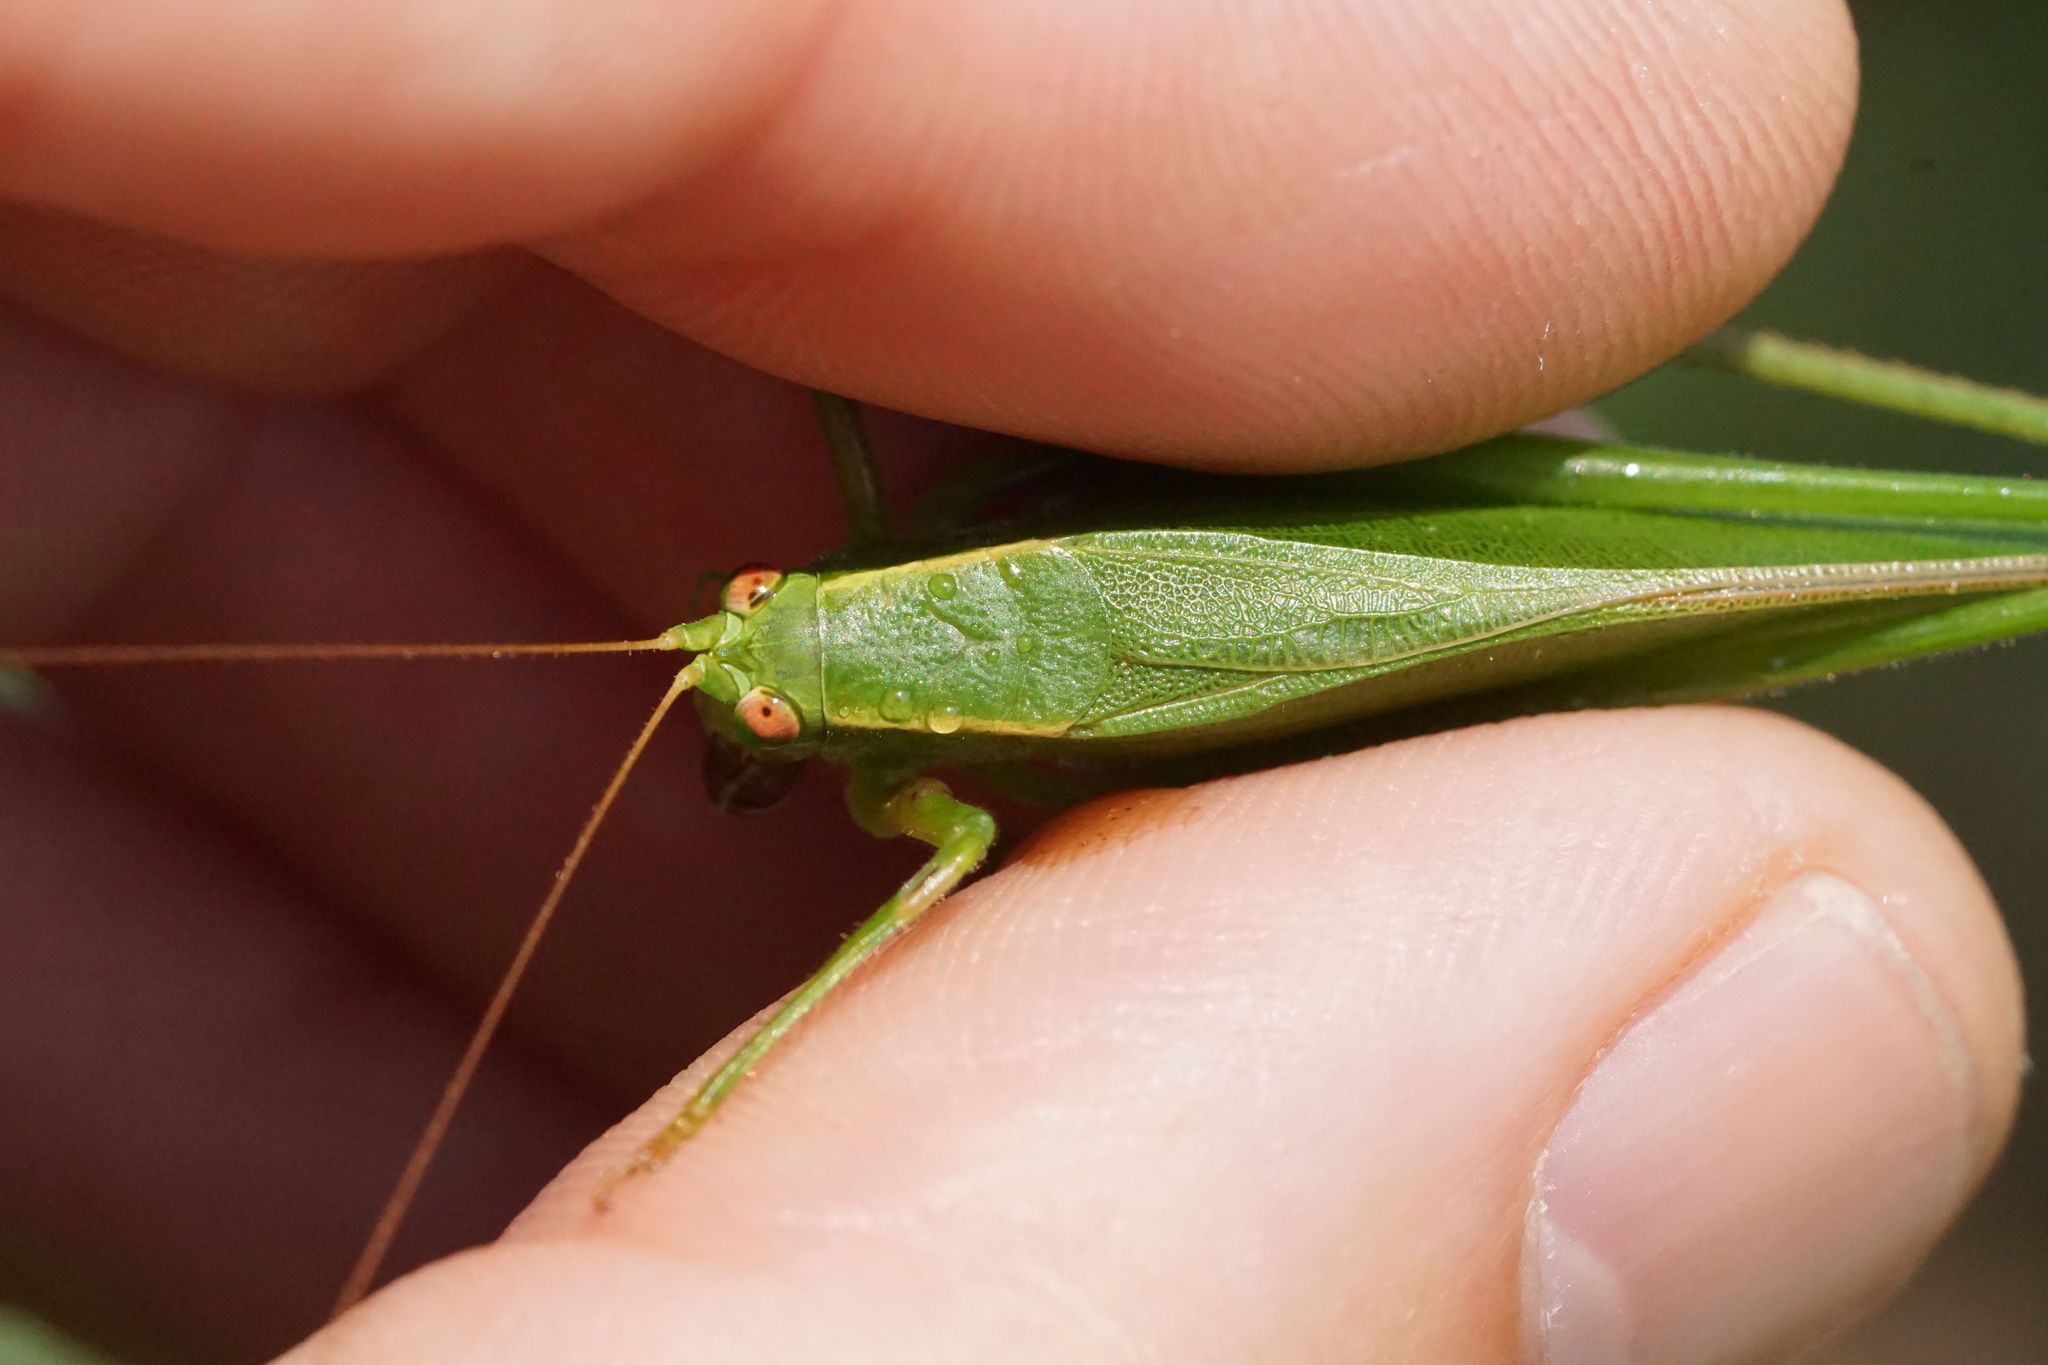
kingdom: Animalia
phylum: Arthropoda
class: Insecta
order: Orthoptera
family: Tettigoniidae
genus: Scudderia
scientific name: Scudderia curvicauda
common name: Curve-tailed bush katydid
